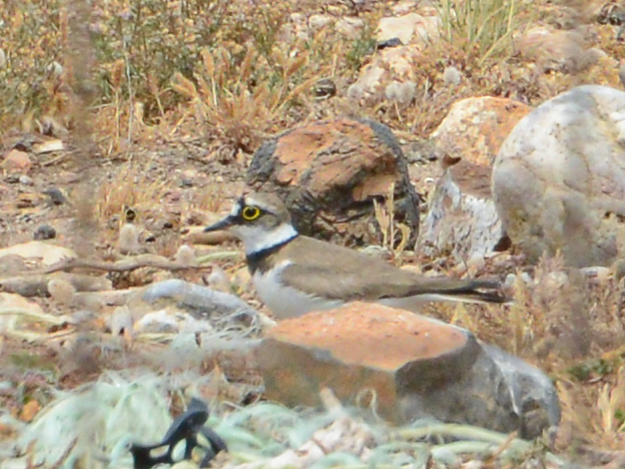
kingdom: Animalia
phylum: Chordata
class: Aves
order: Charadriiformes
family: Charadriidae
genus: Charadrius
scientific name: Charadrius dubius
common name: Little ringed plover
